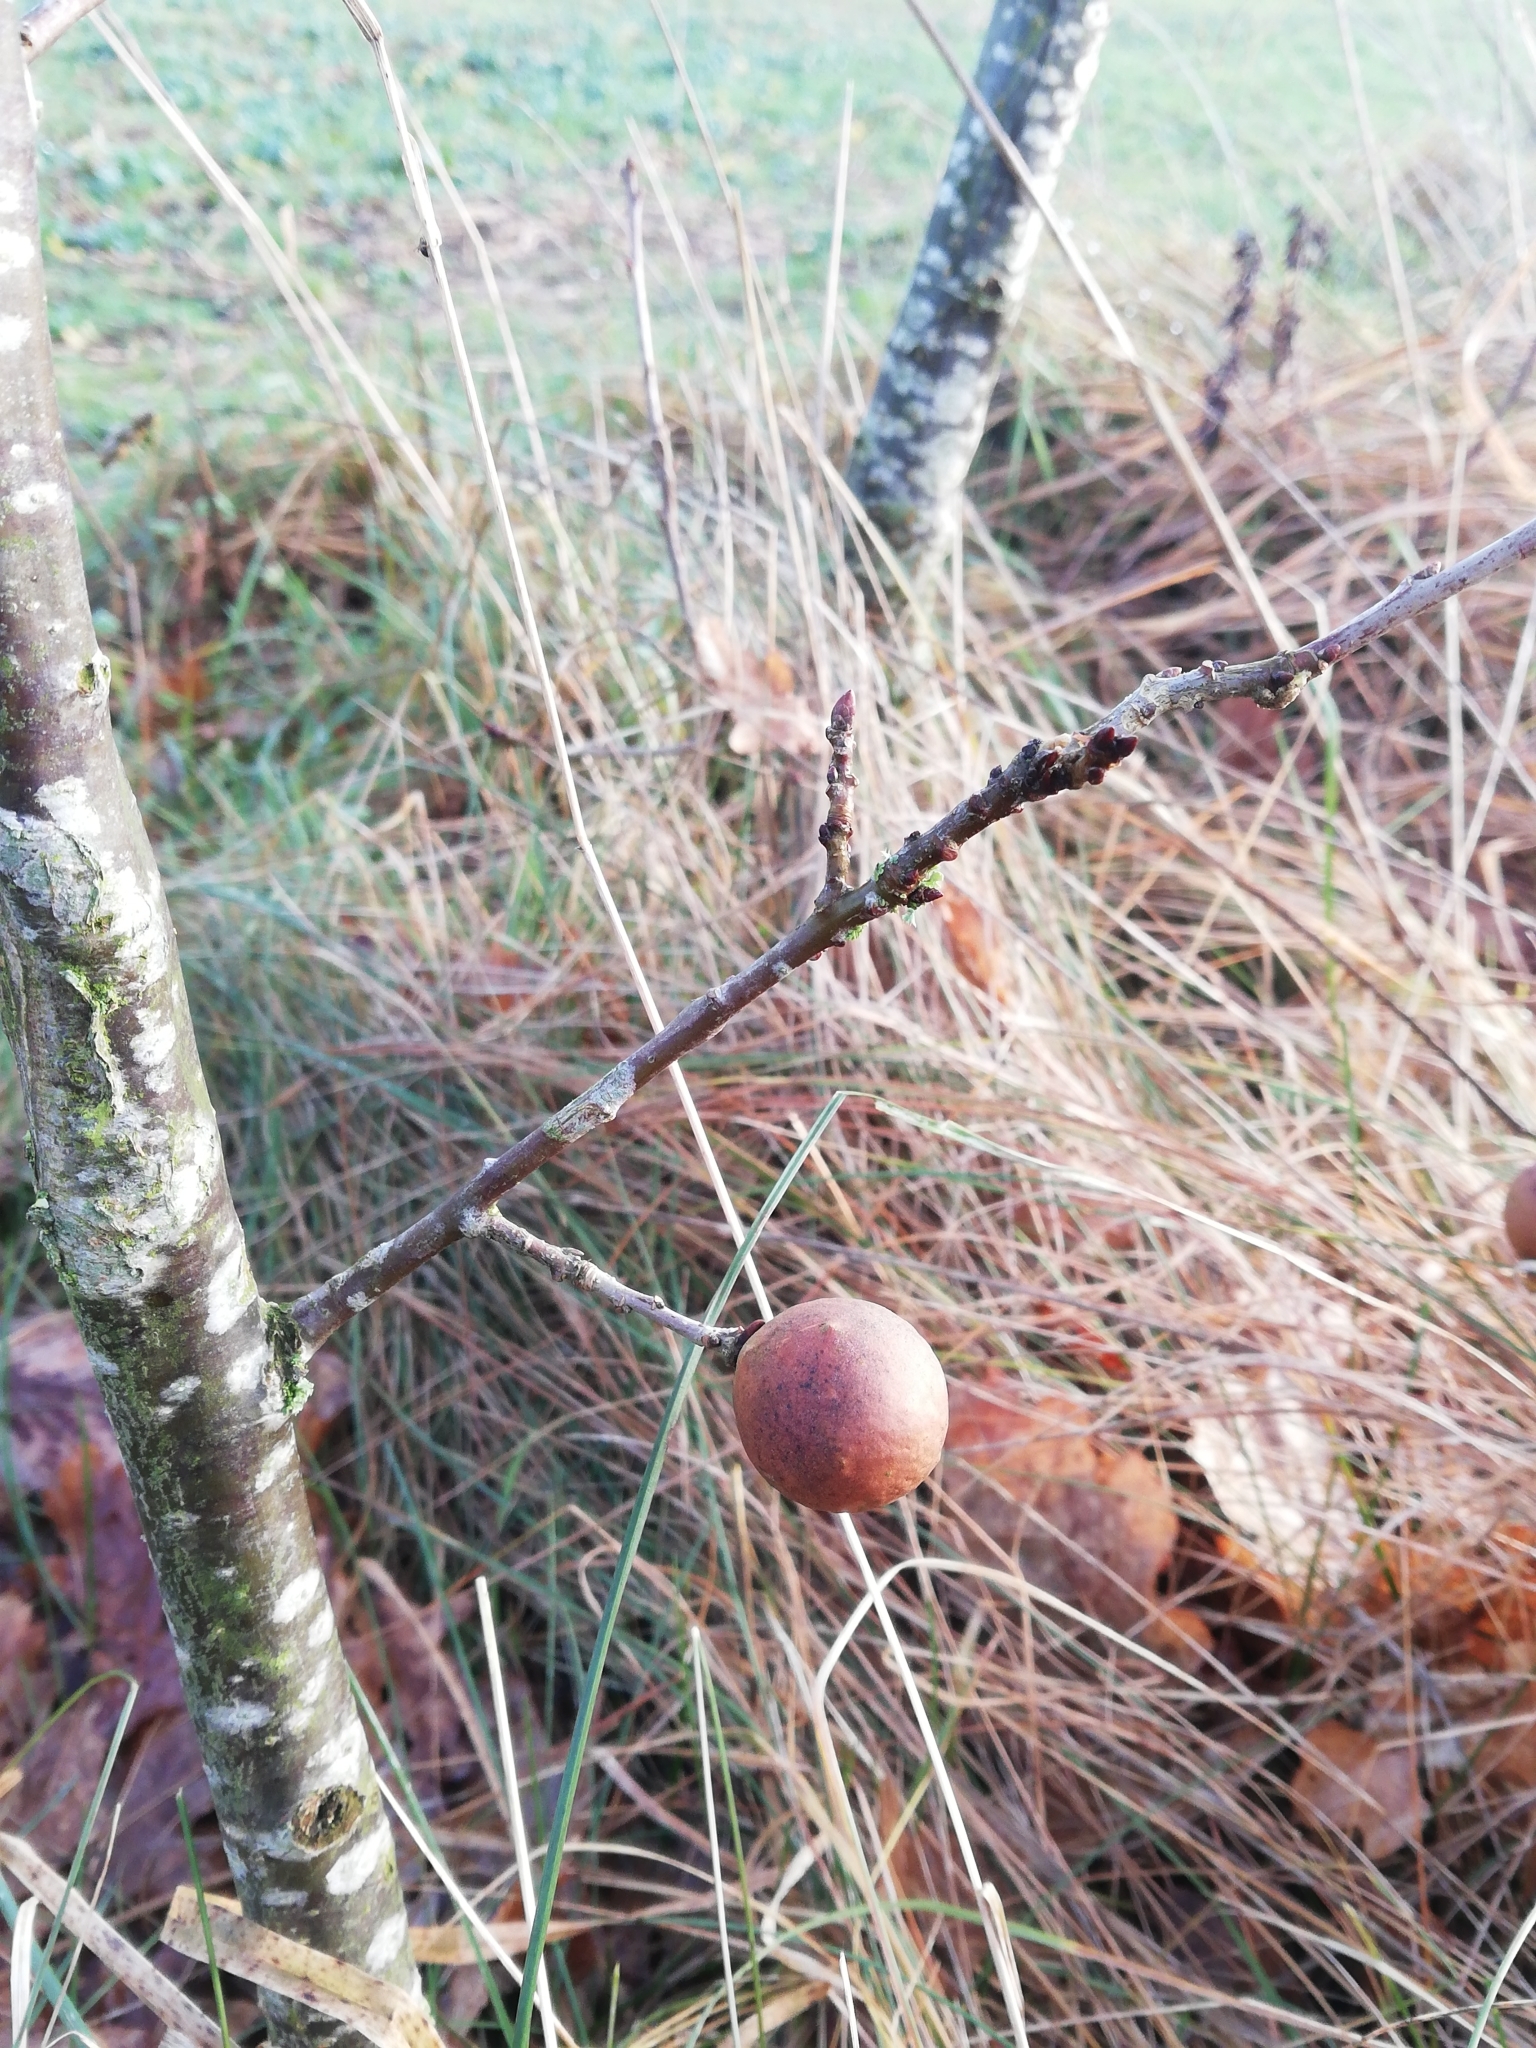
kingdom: Animalia
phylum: Arthropoda
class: Insecta
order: Hymenoptera
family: Cynipidae
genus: Andricus
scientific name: Andricus kollari
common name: Marble gall
